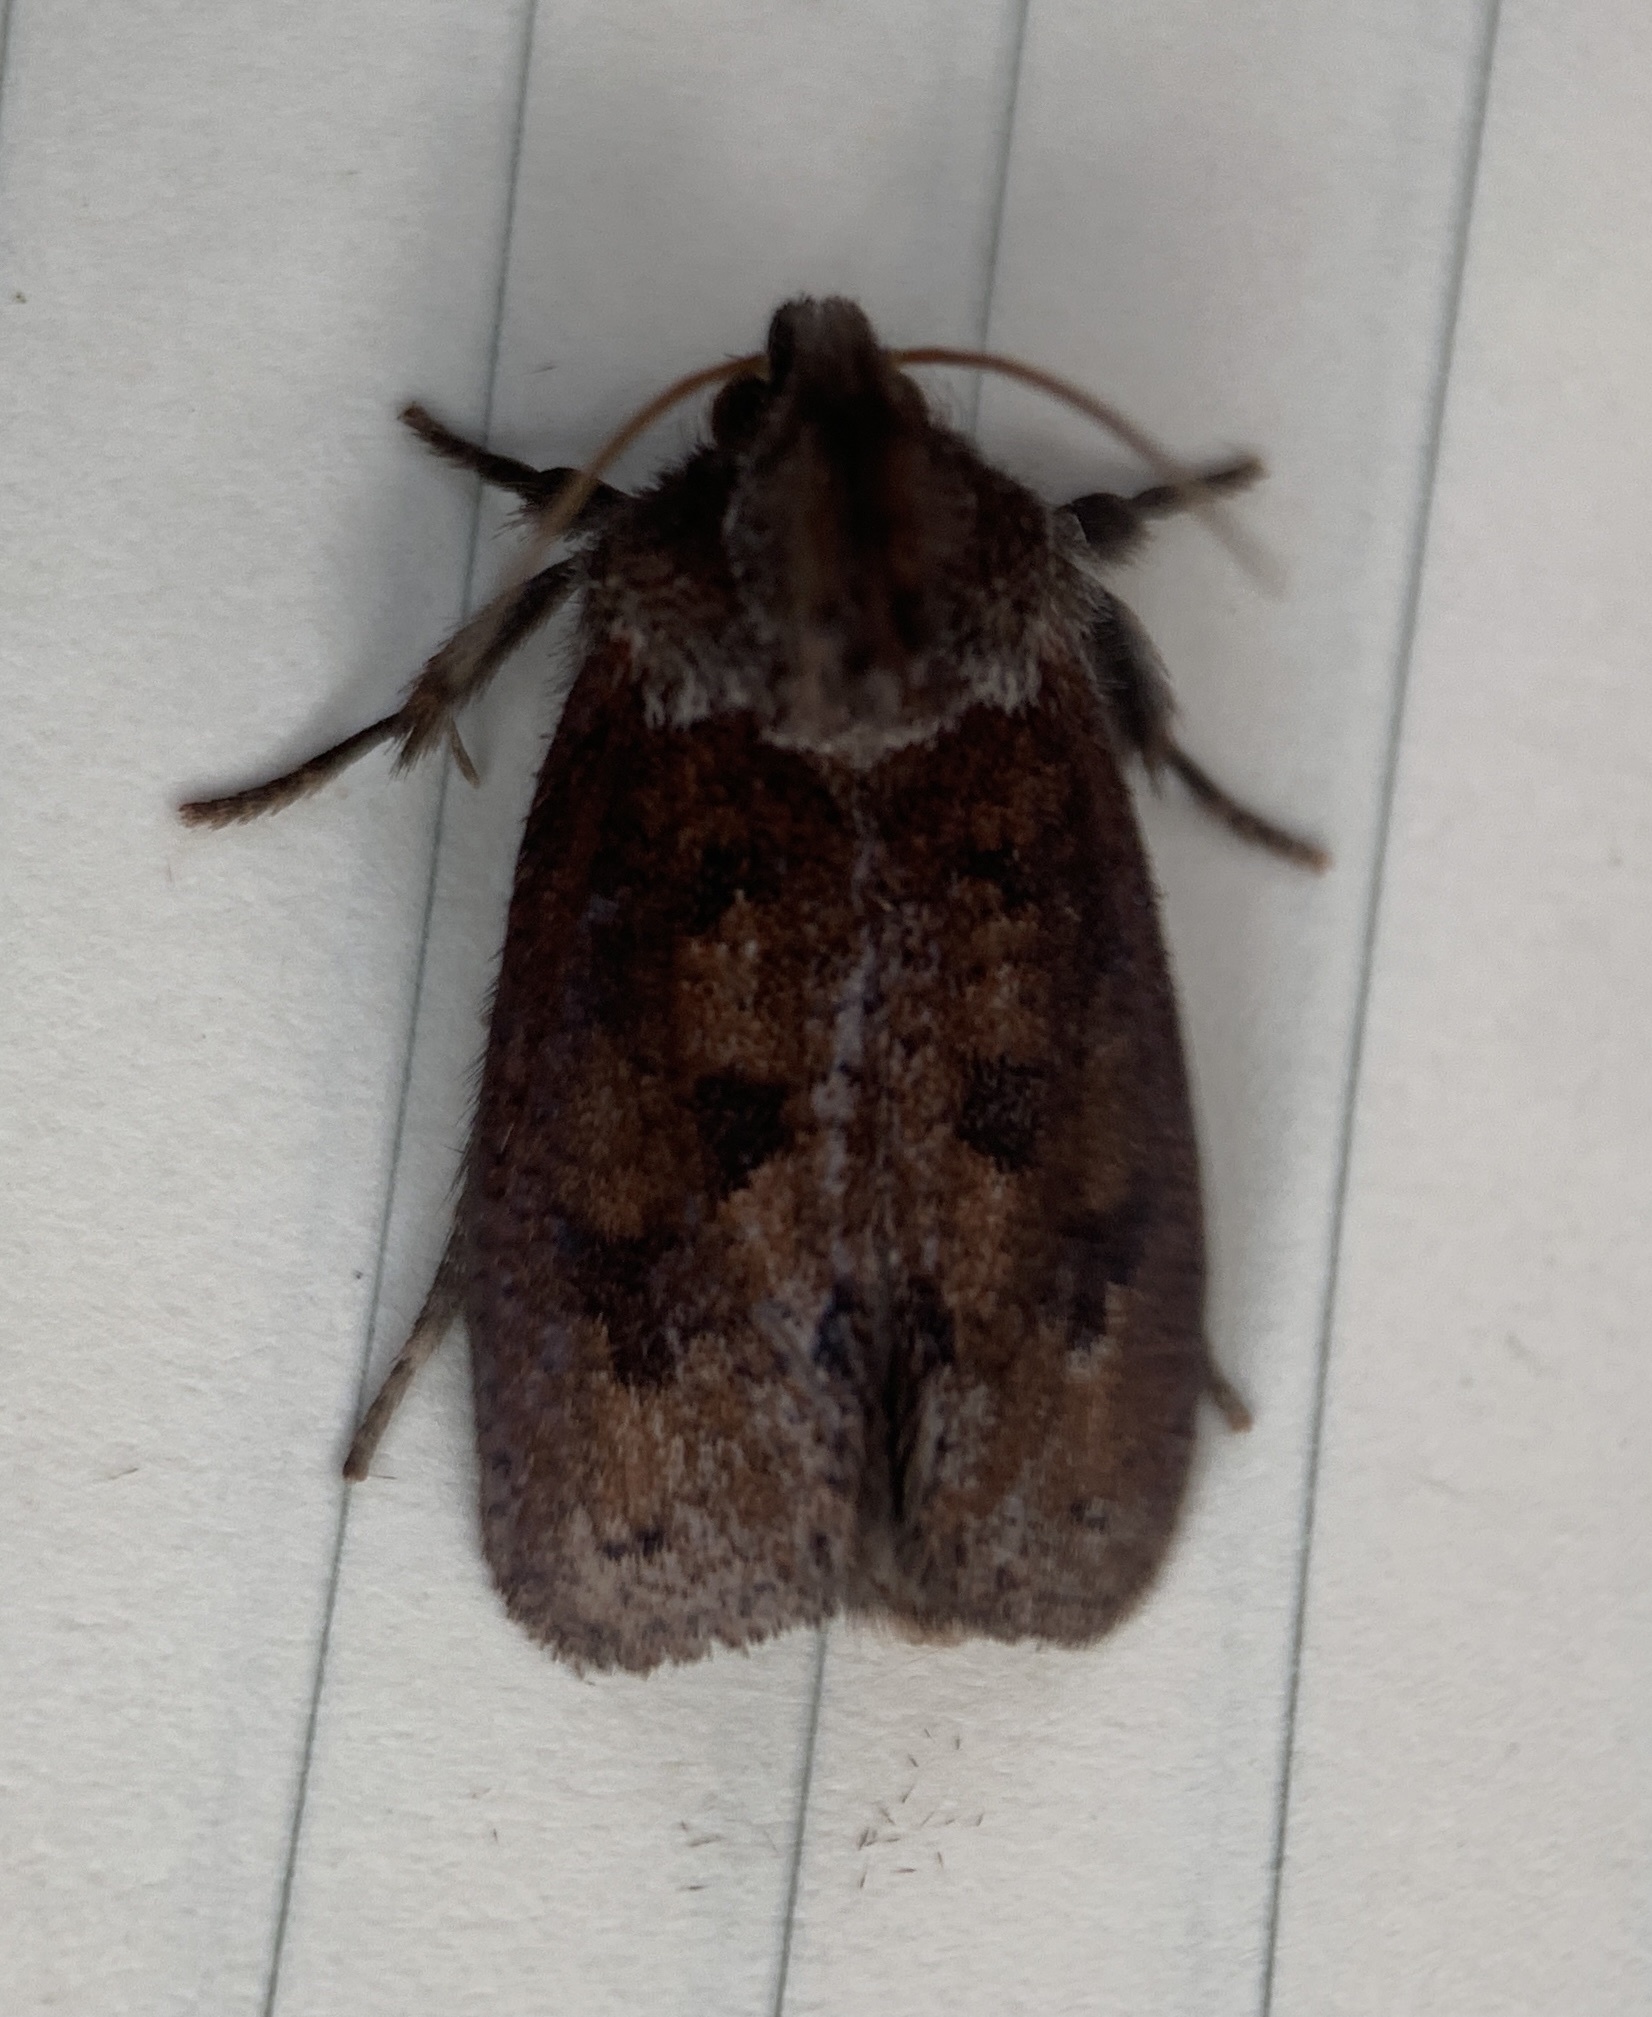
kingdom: Animalia
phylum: Arthropoda
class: Insecta
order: Lepidoptera
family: Tineidae
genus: Acrolophus
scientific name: Acrolophus plumifrontella
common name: Eastern grass tubeworm moth
